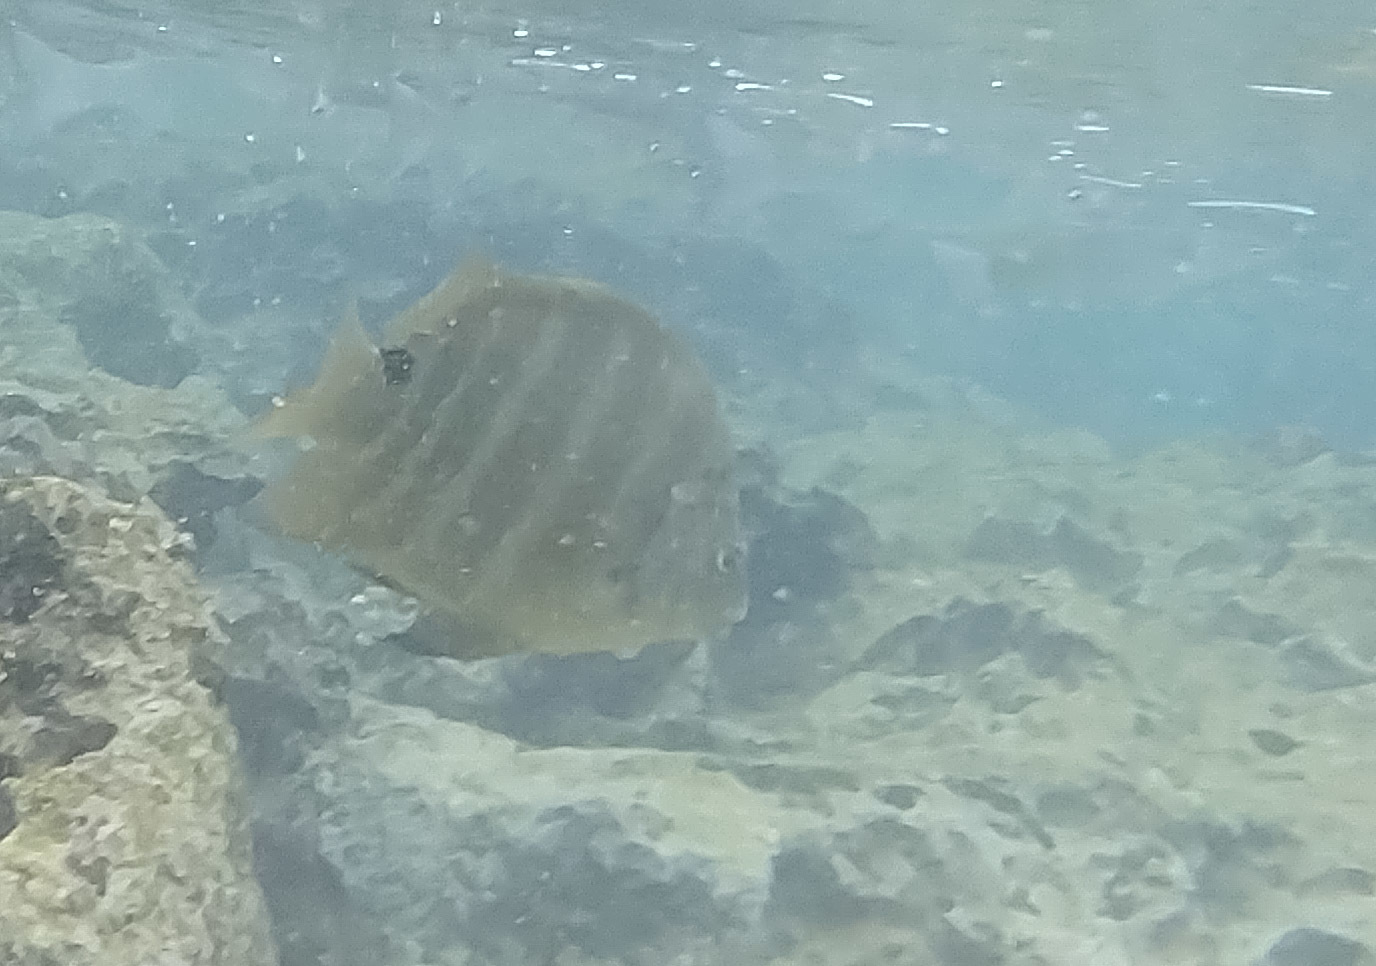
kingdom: Animalia
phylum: Chordata
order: Perciformes
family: Pomacentridae
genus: Abudefduf
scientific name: Abudefduf sordidus
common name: Blackspot sergeant
